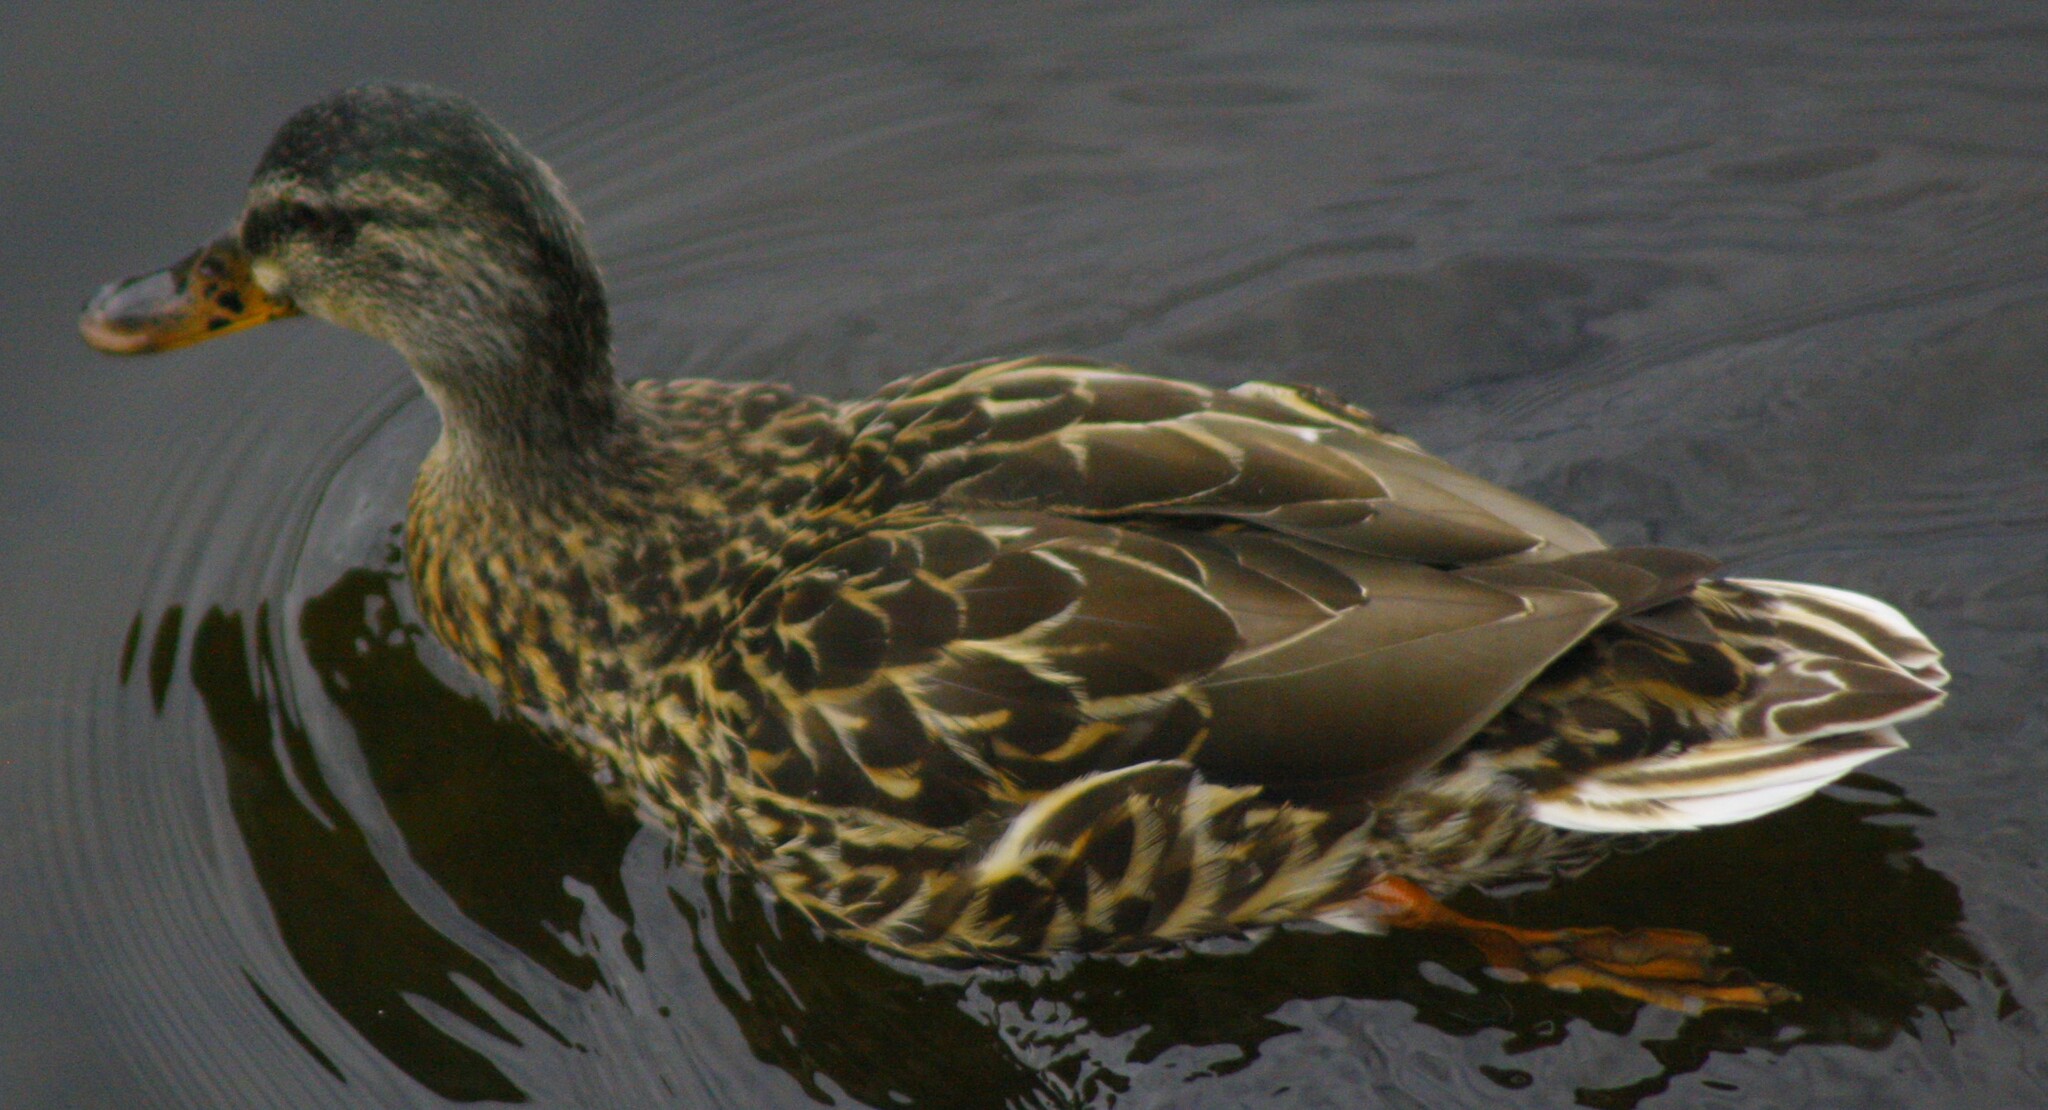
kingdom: Animalia
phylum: Chordata
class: Aves
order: Anseriformes
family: Anatidae
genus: Anas
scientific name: Anas platyrhynchos
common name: Mallard
